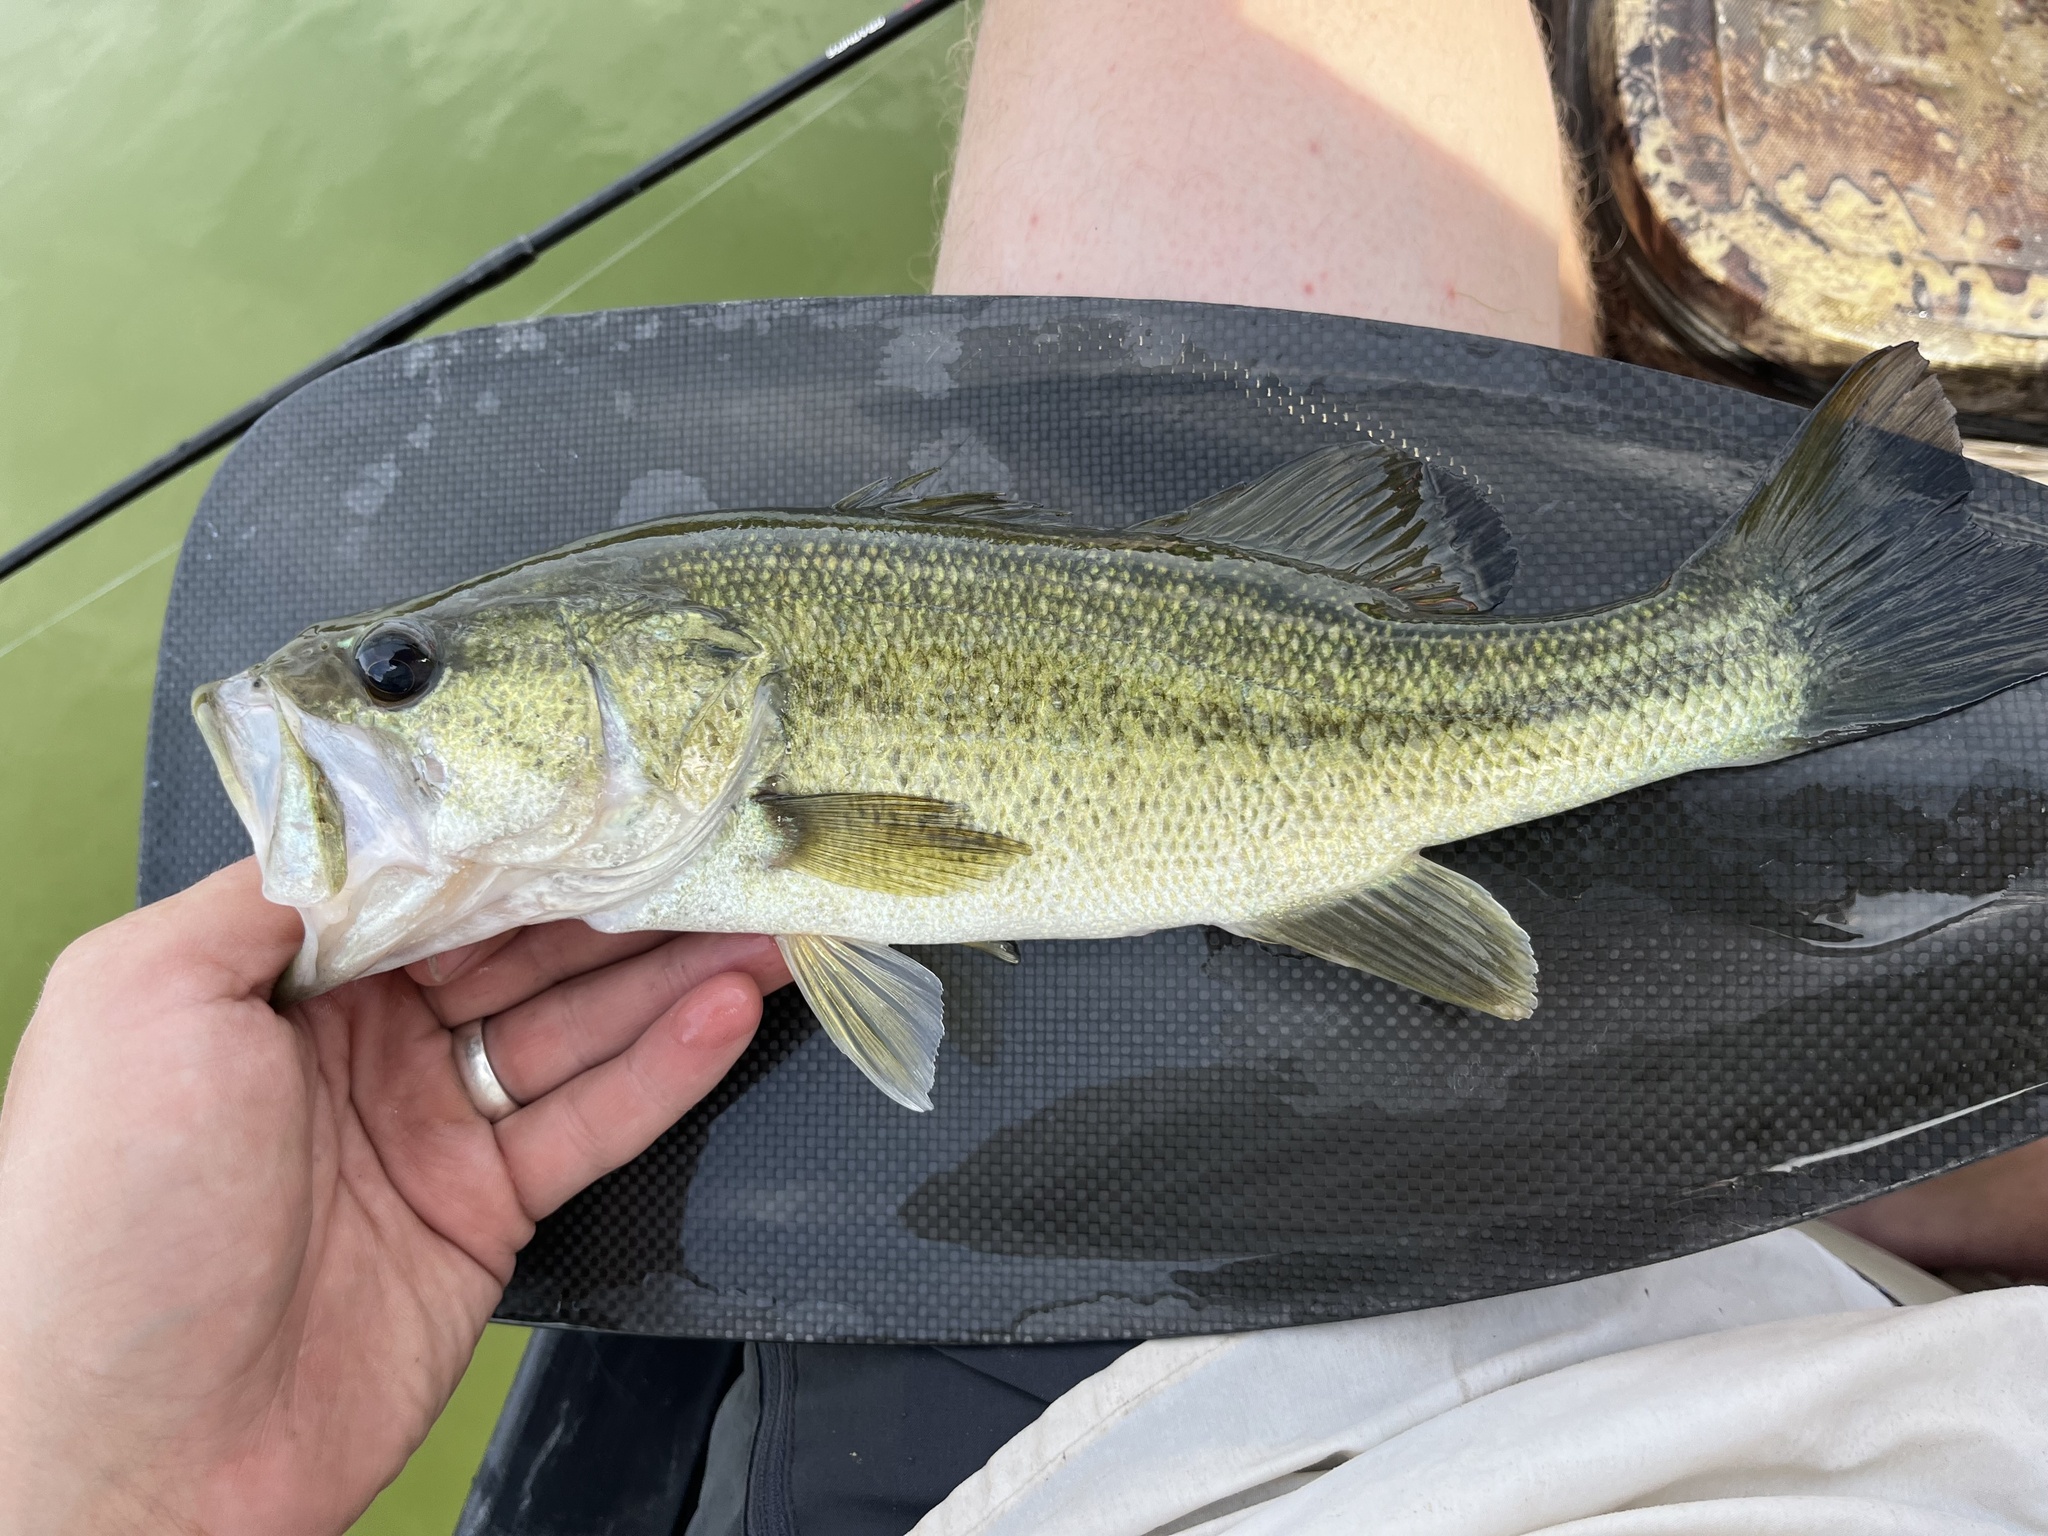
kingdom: Animalia
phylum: Chordata
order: Perciformes
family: Centrarchidae
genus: Micropterus
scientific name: Micropterus
